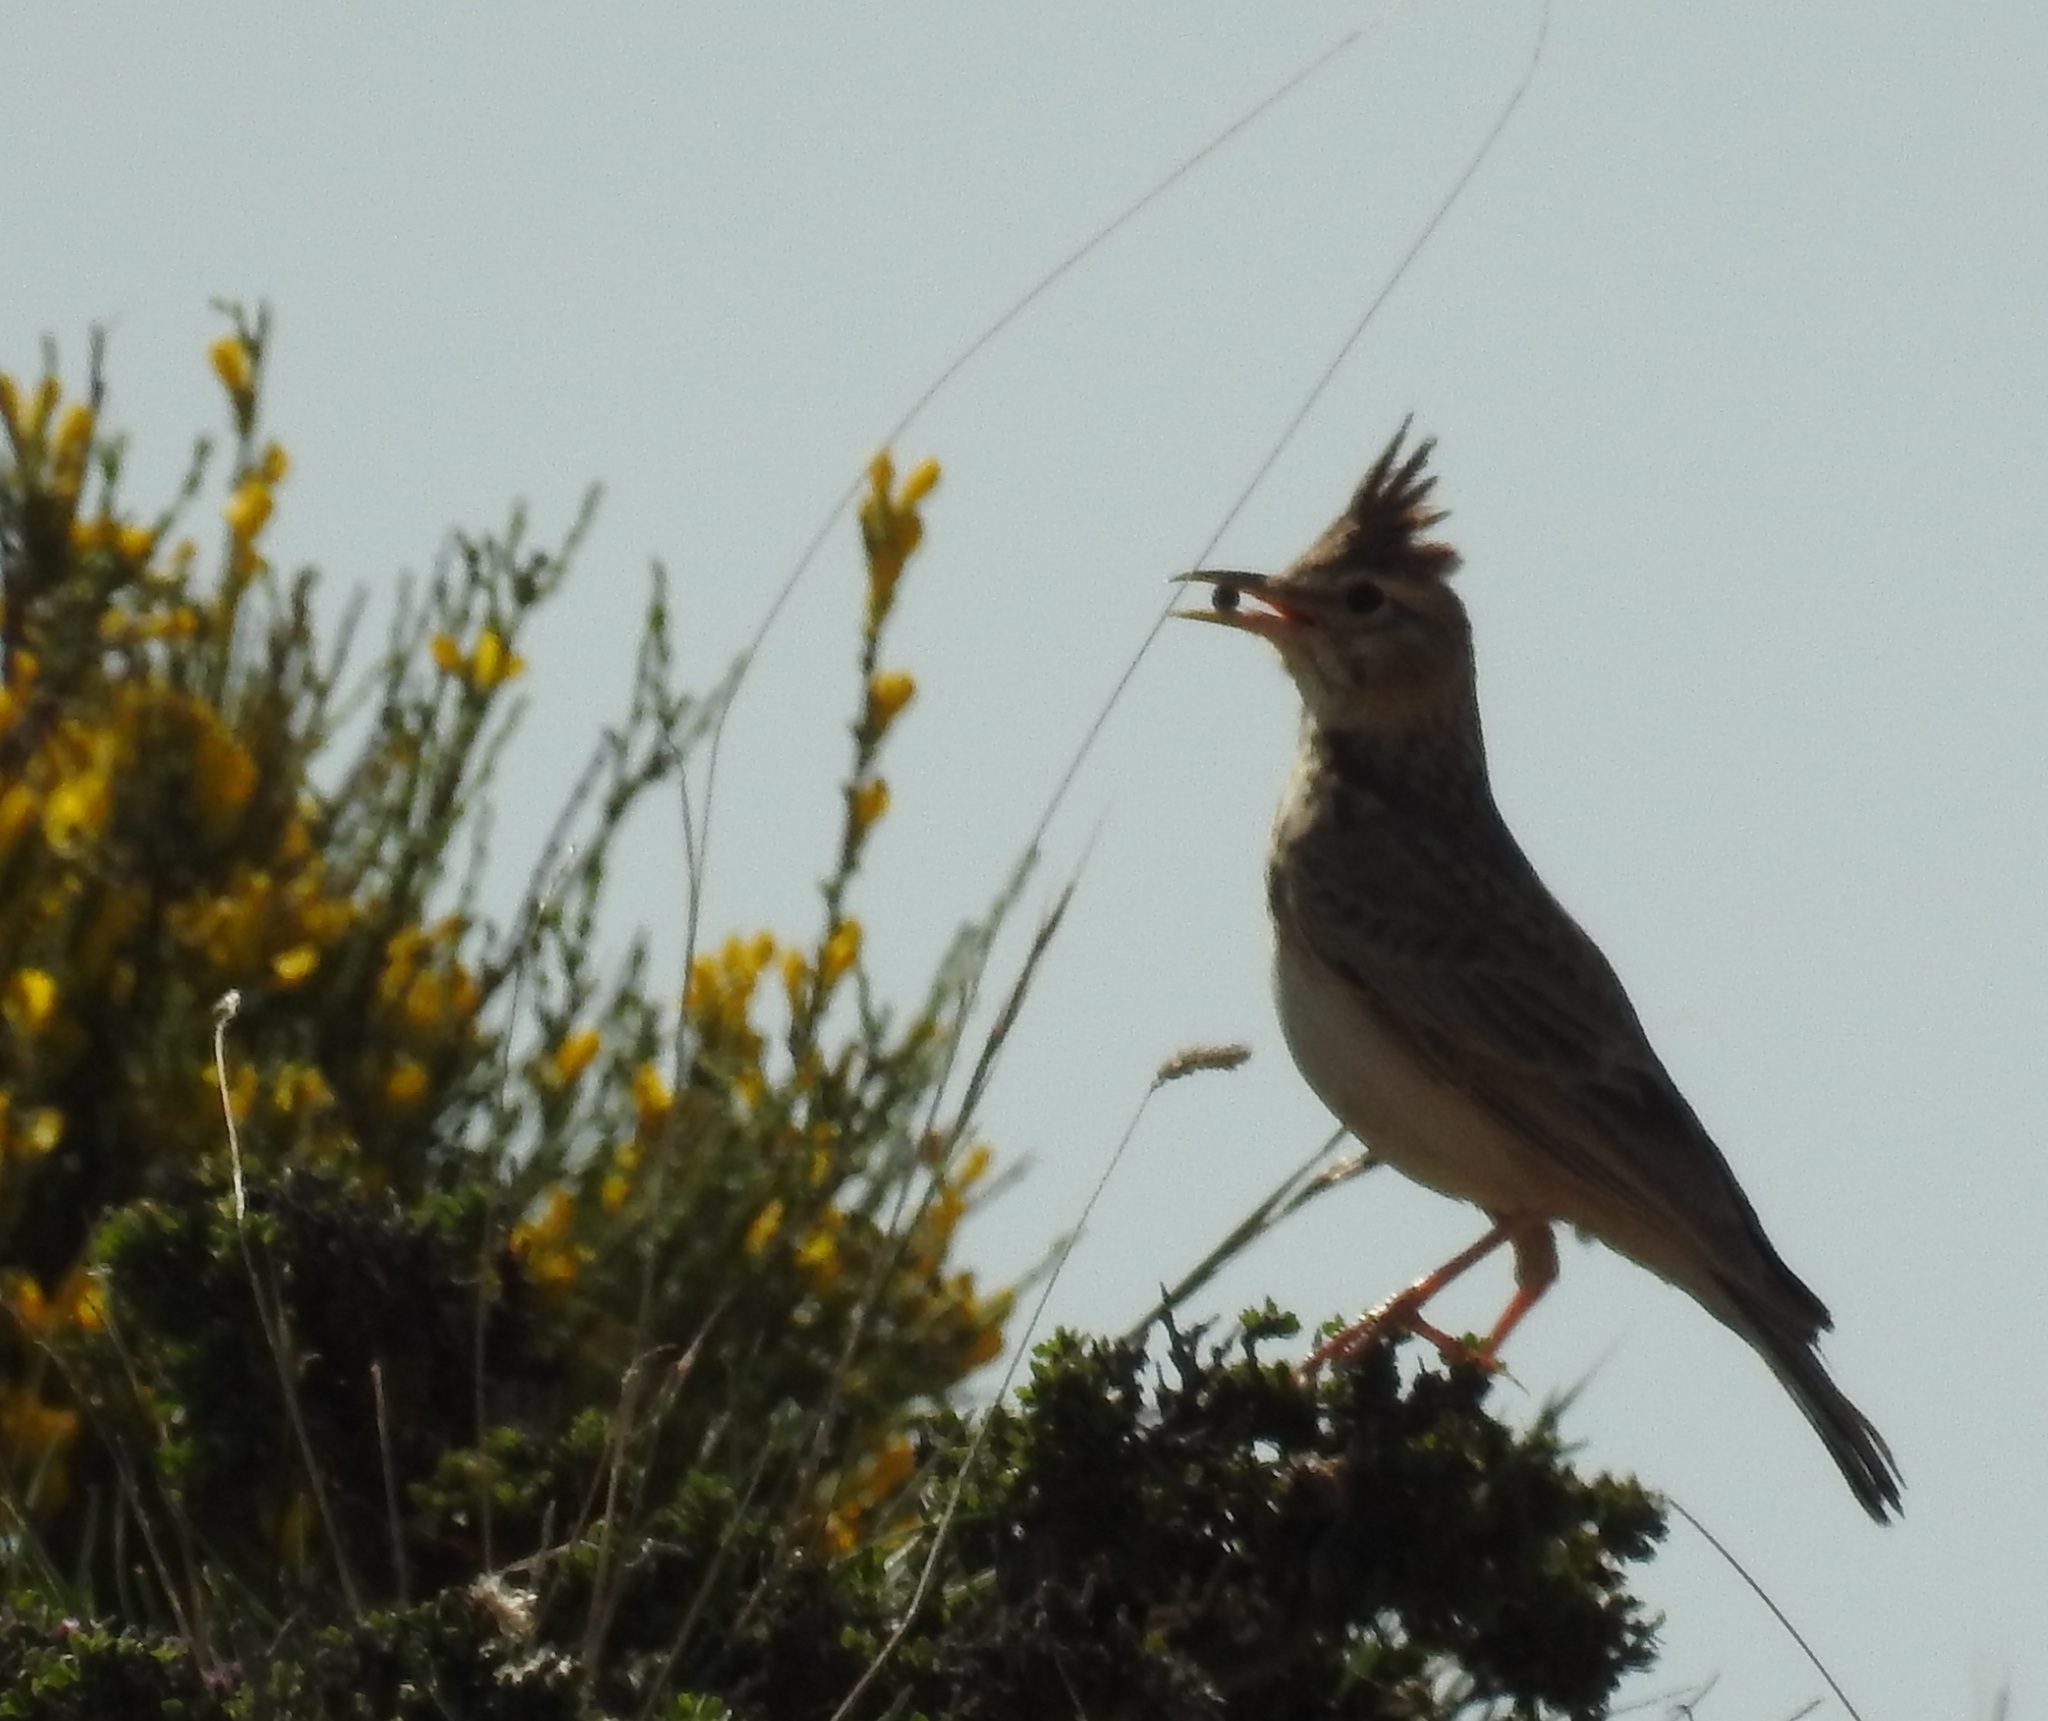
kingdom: Animalia
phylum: Chordata
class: Aves
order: Passeriformes
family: Alaudidae
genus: Galerida
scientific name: Galerida cristata
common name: Crested lark
